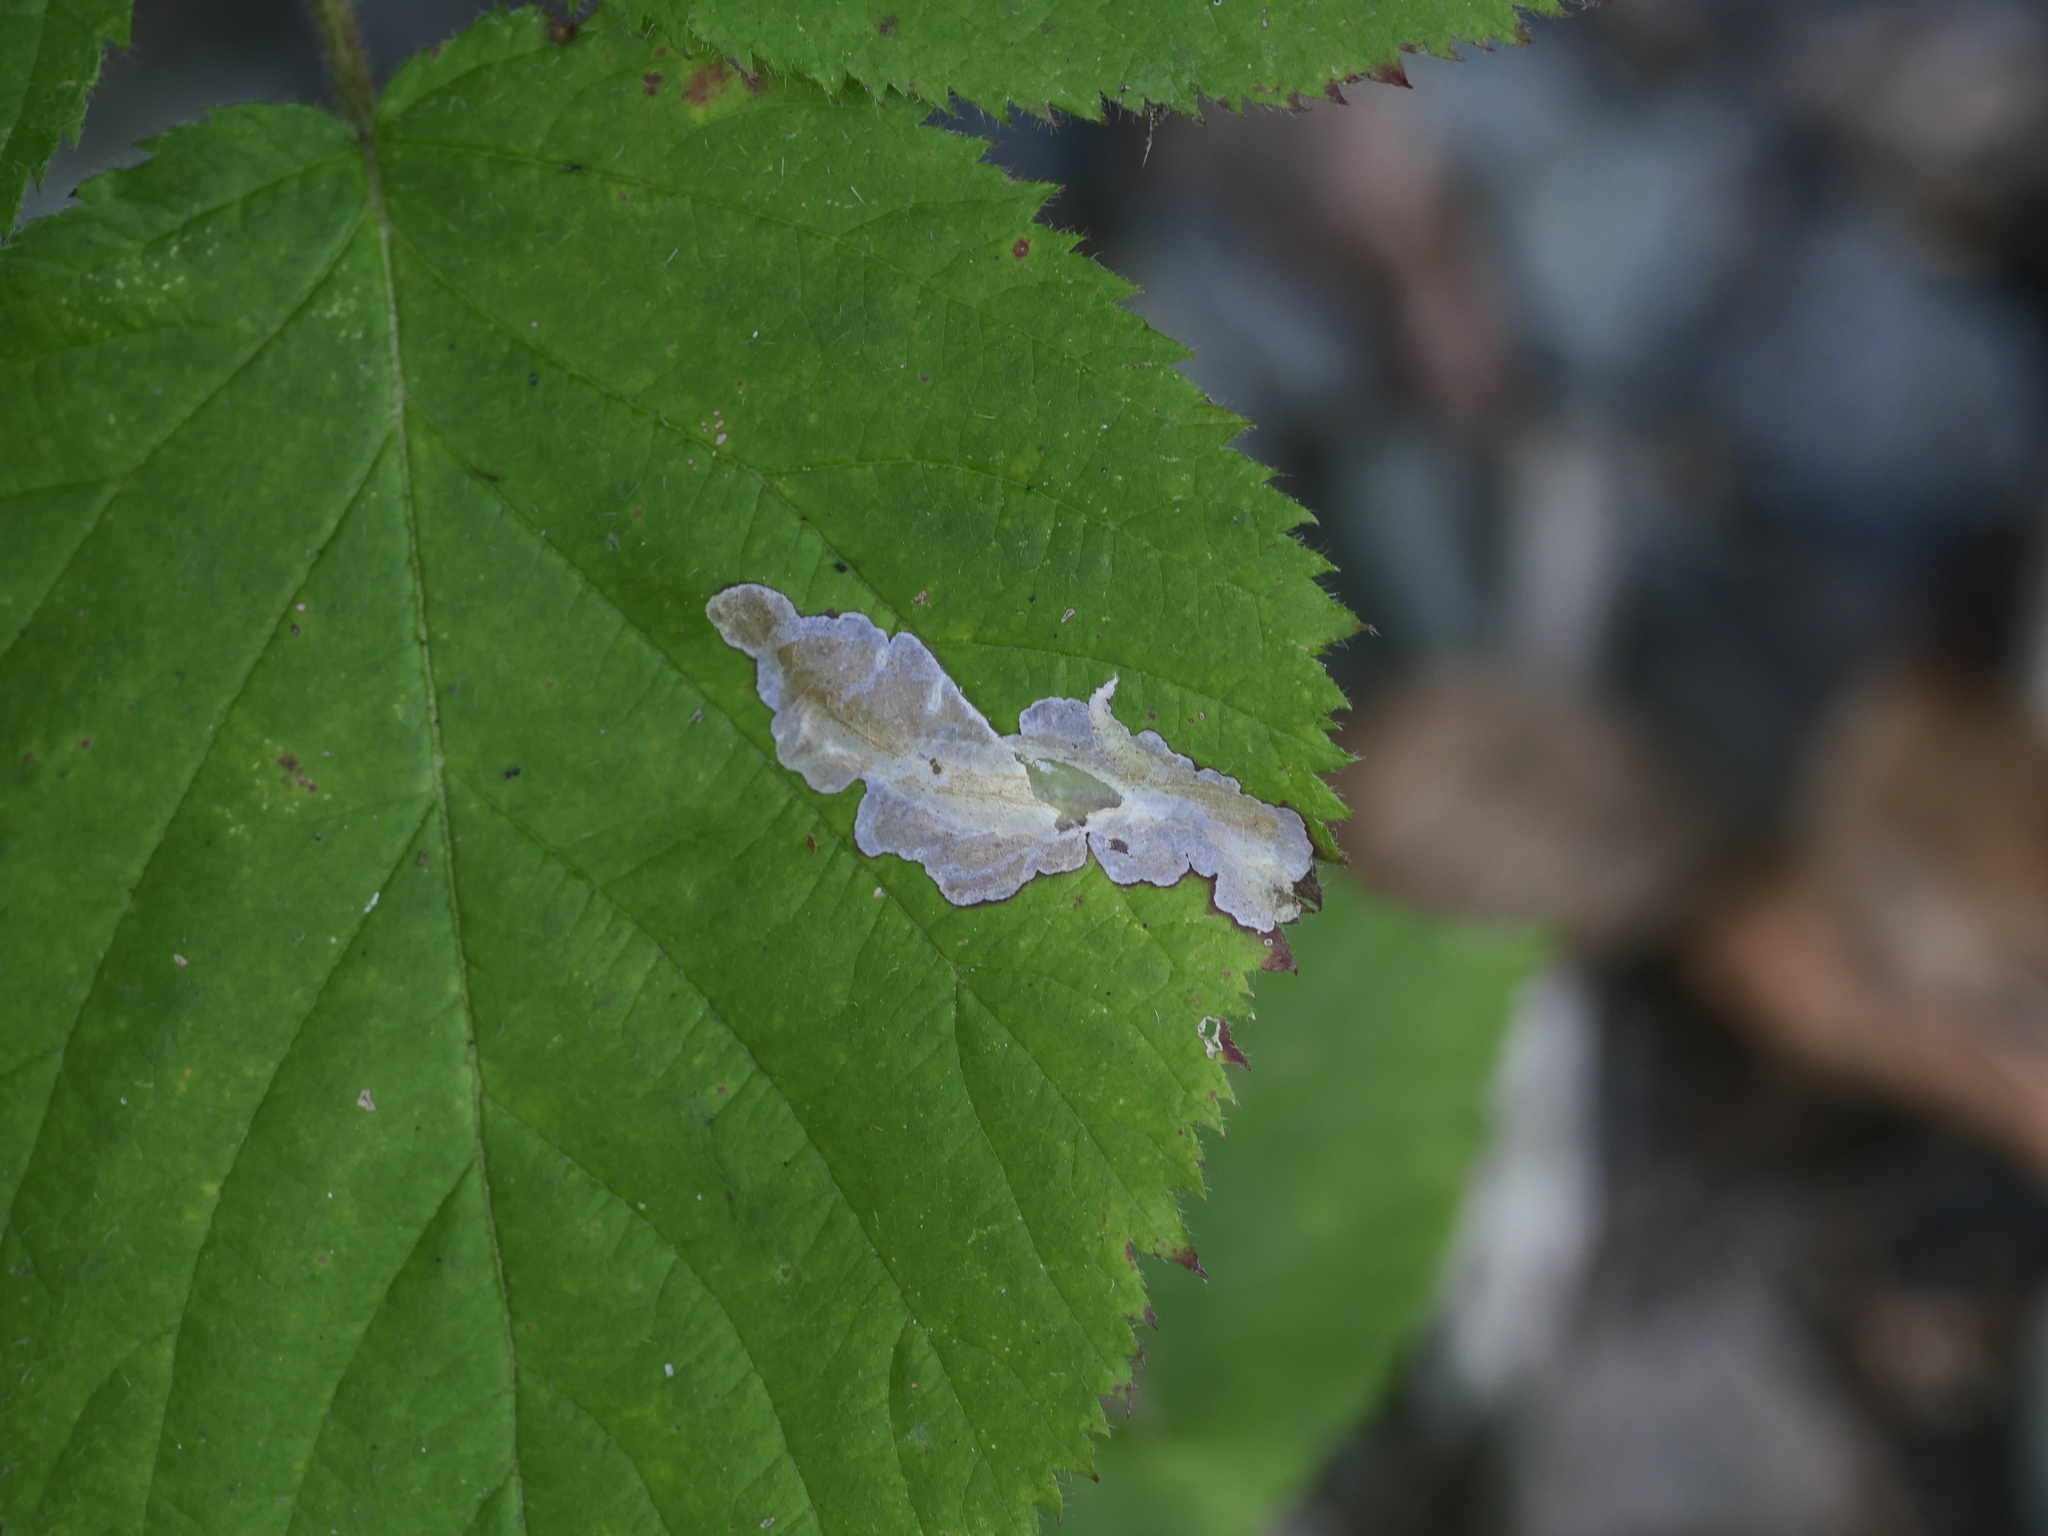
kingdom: Animalia
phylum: Arthropoda
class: Insecta
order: Lepidoptera
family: Tischeriidae
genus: Coptotriche
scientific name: Coptotriche aenea
